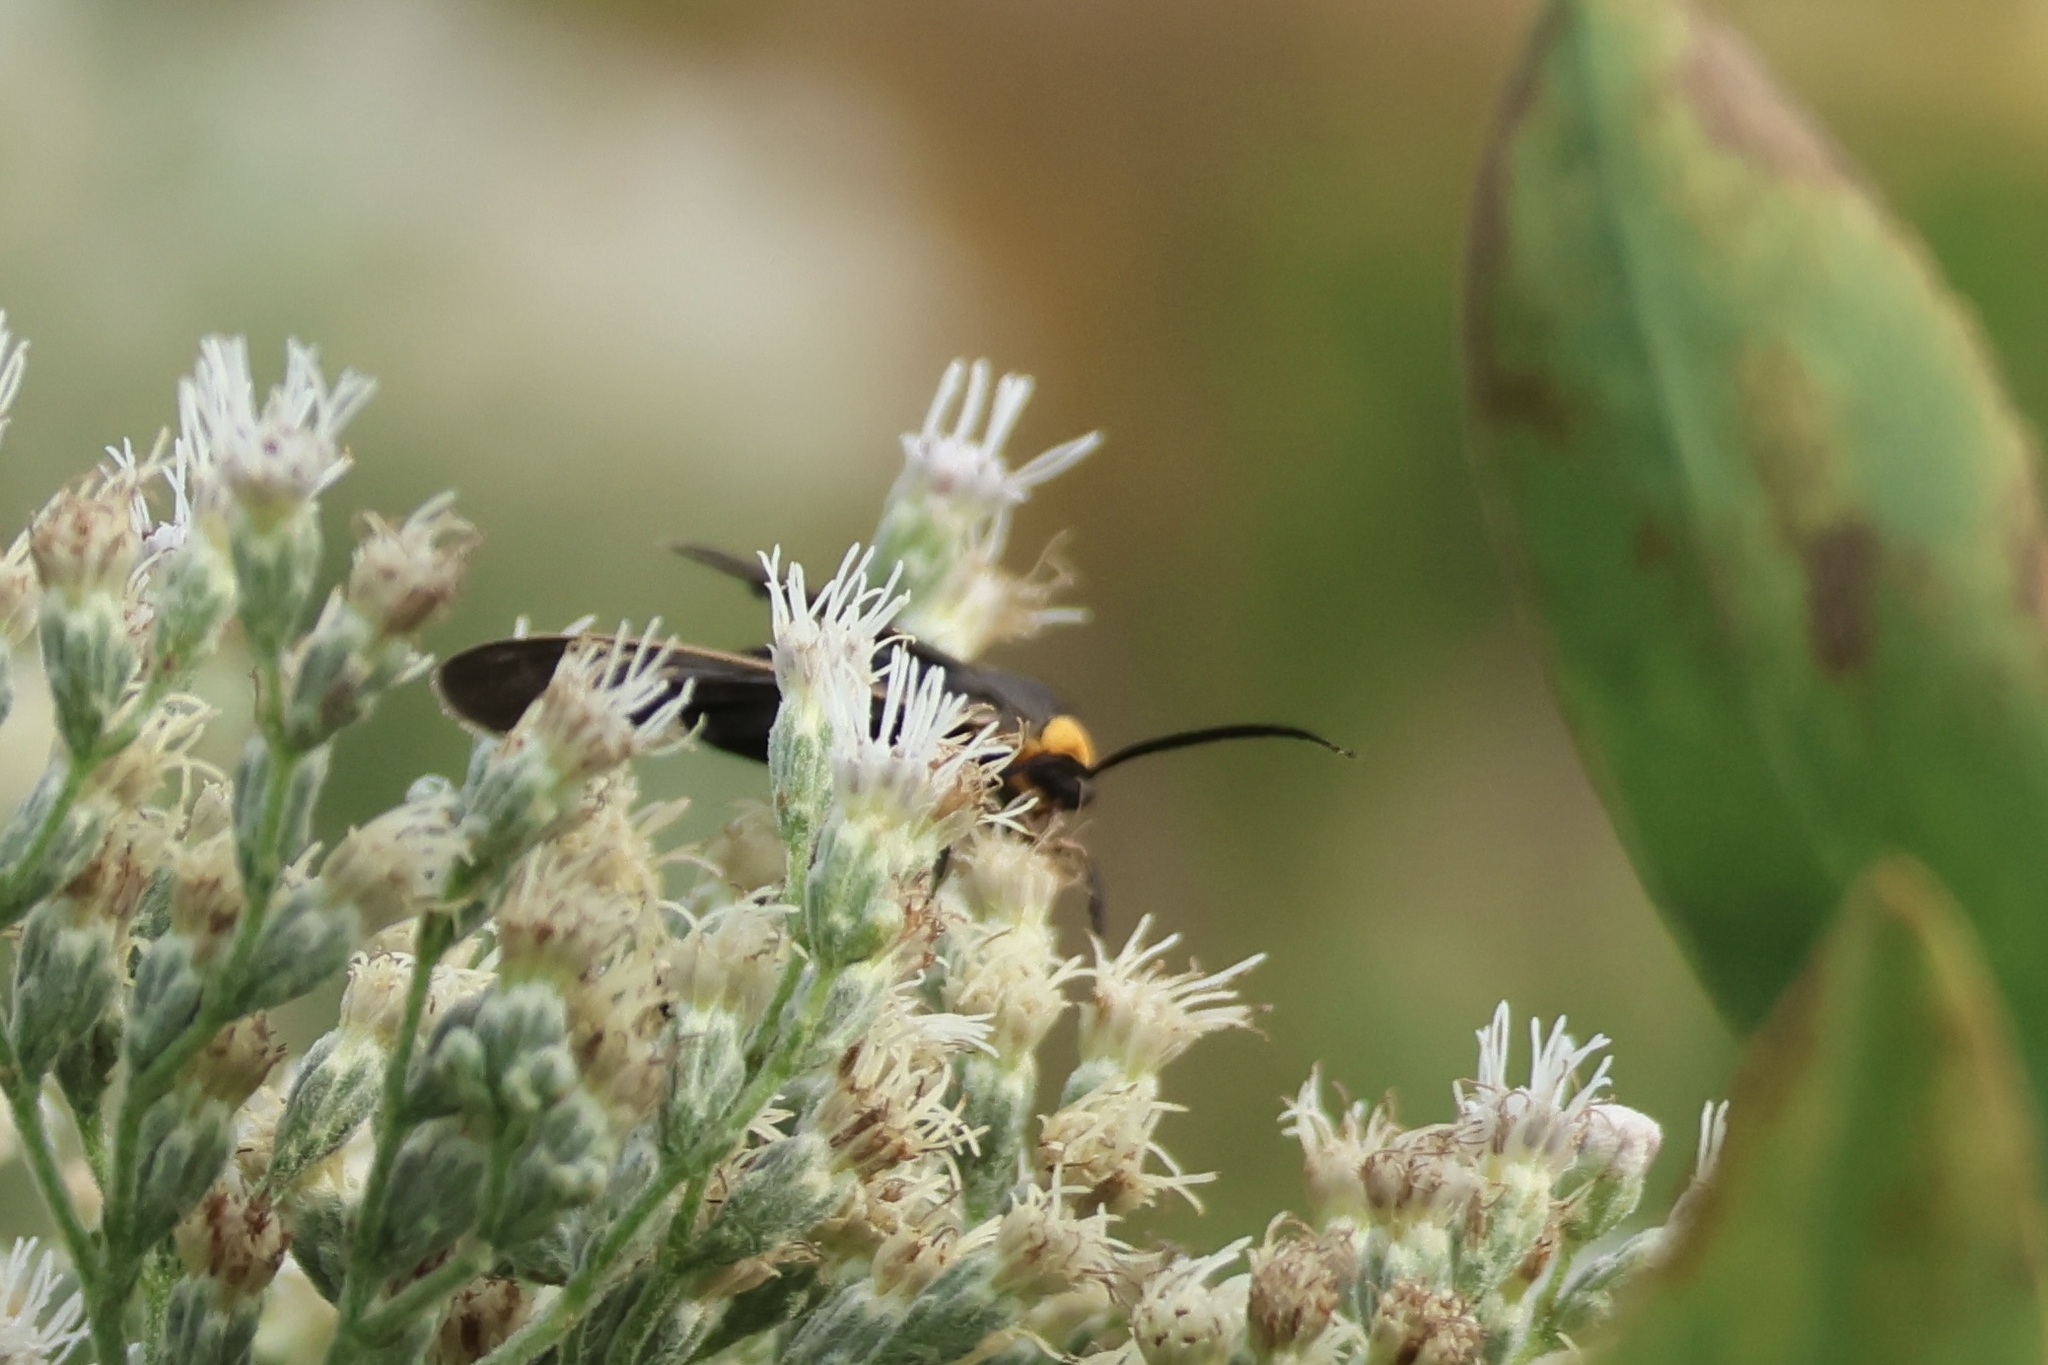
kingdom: Animalia
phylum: Arthropoda
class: Insecta
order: Lepidoptera
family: Erebidae
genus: Cisseps
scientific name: Cisseps fulvicollis
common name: Yellow-collared scape moth
